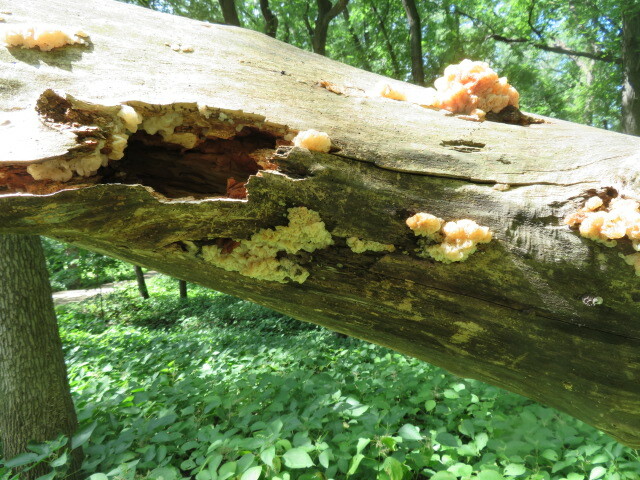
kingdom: Fungi
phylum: Basidiomycota
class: Agaricomycetes
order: Auriculariales
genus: Ductifera
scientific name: Ductifera pululahuana
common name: White jelly fungus
